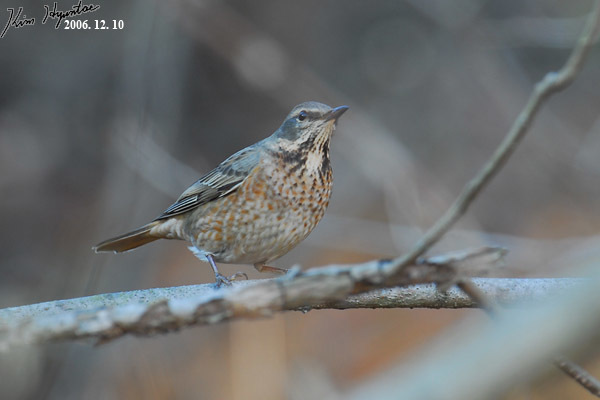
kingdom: Animalia
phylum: Chordata
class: Aves
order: Passeriformes
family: Turdidae
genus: Turdus
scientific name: Turdus naumanni
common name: Naumann's thrush
